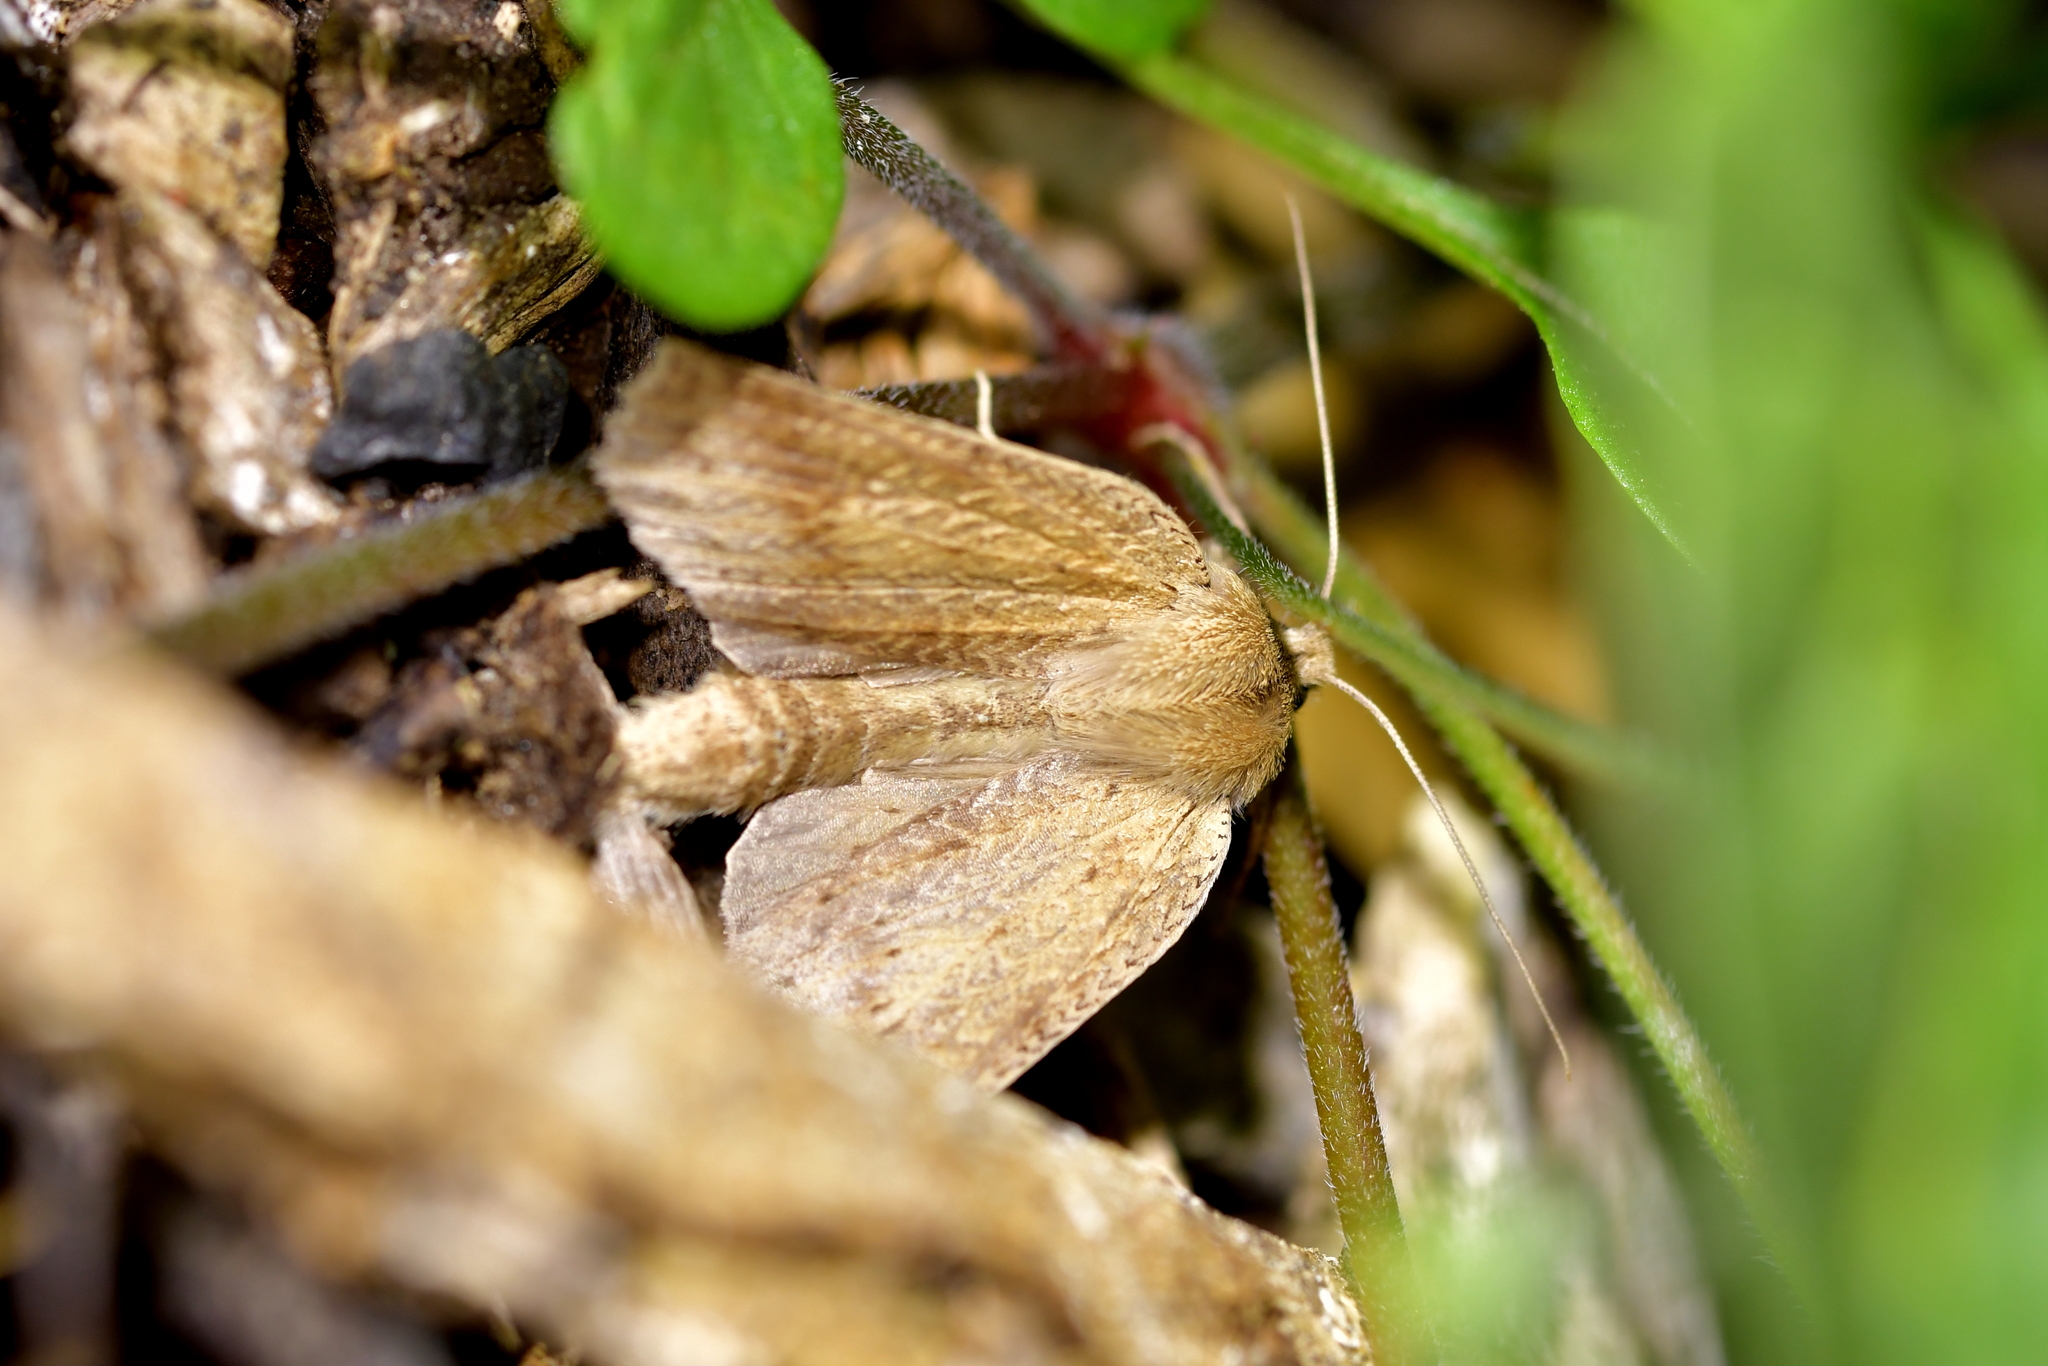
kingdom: Animalia
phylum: Arthropoda
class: Insecta
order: Lepidoptera
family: Geometridae
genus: Declana
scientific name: Declana leptomera
